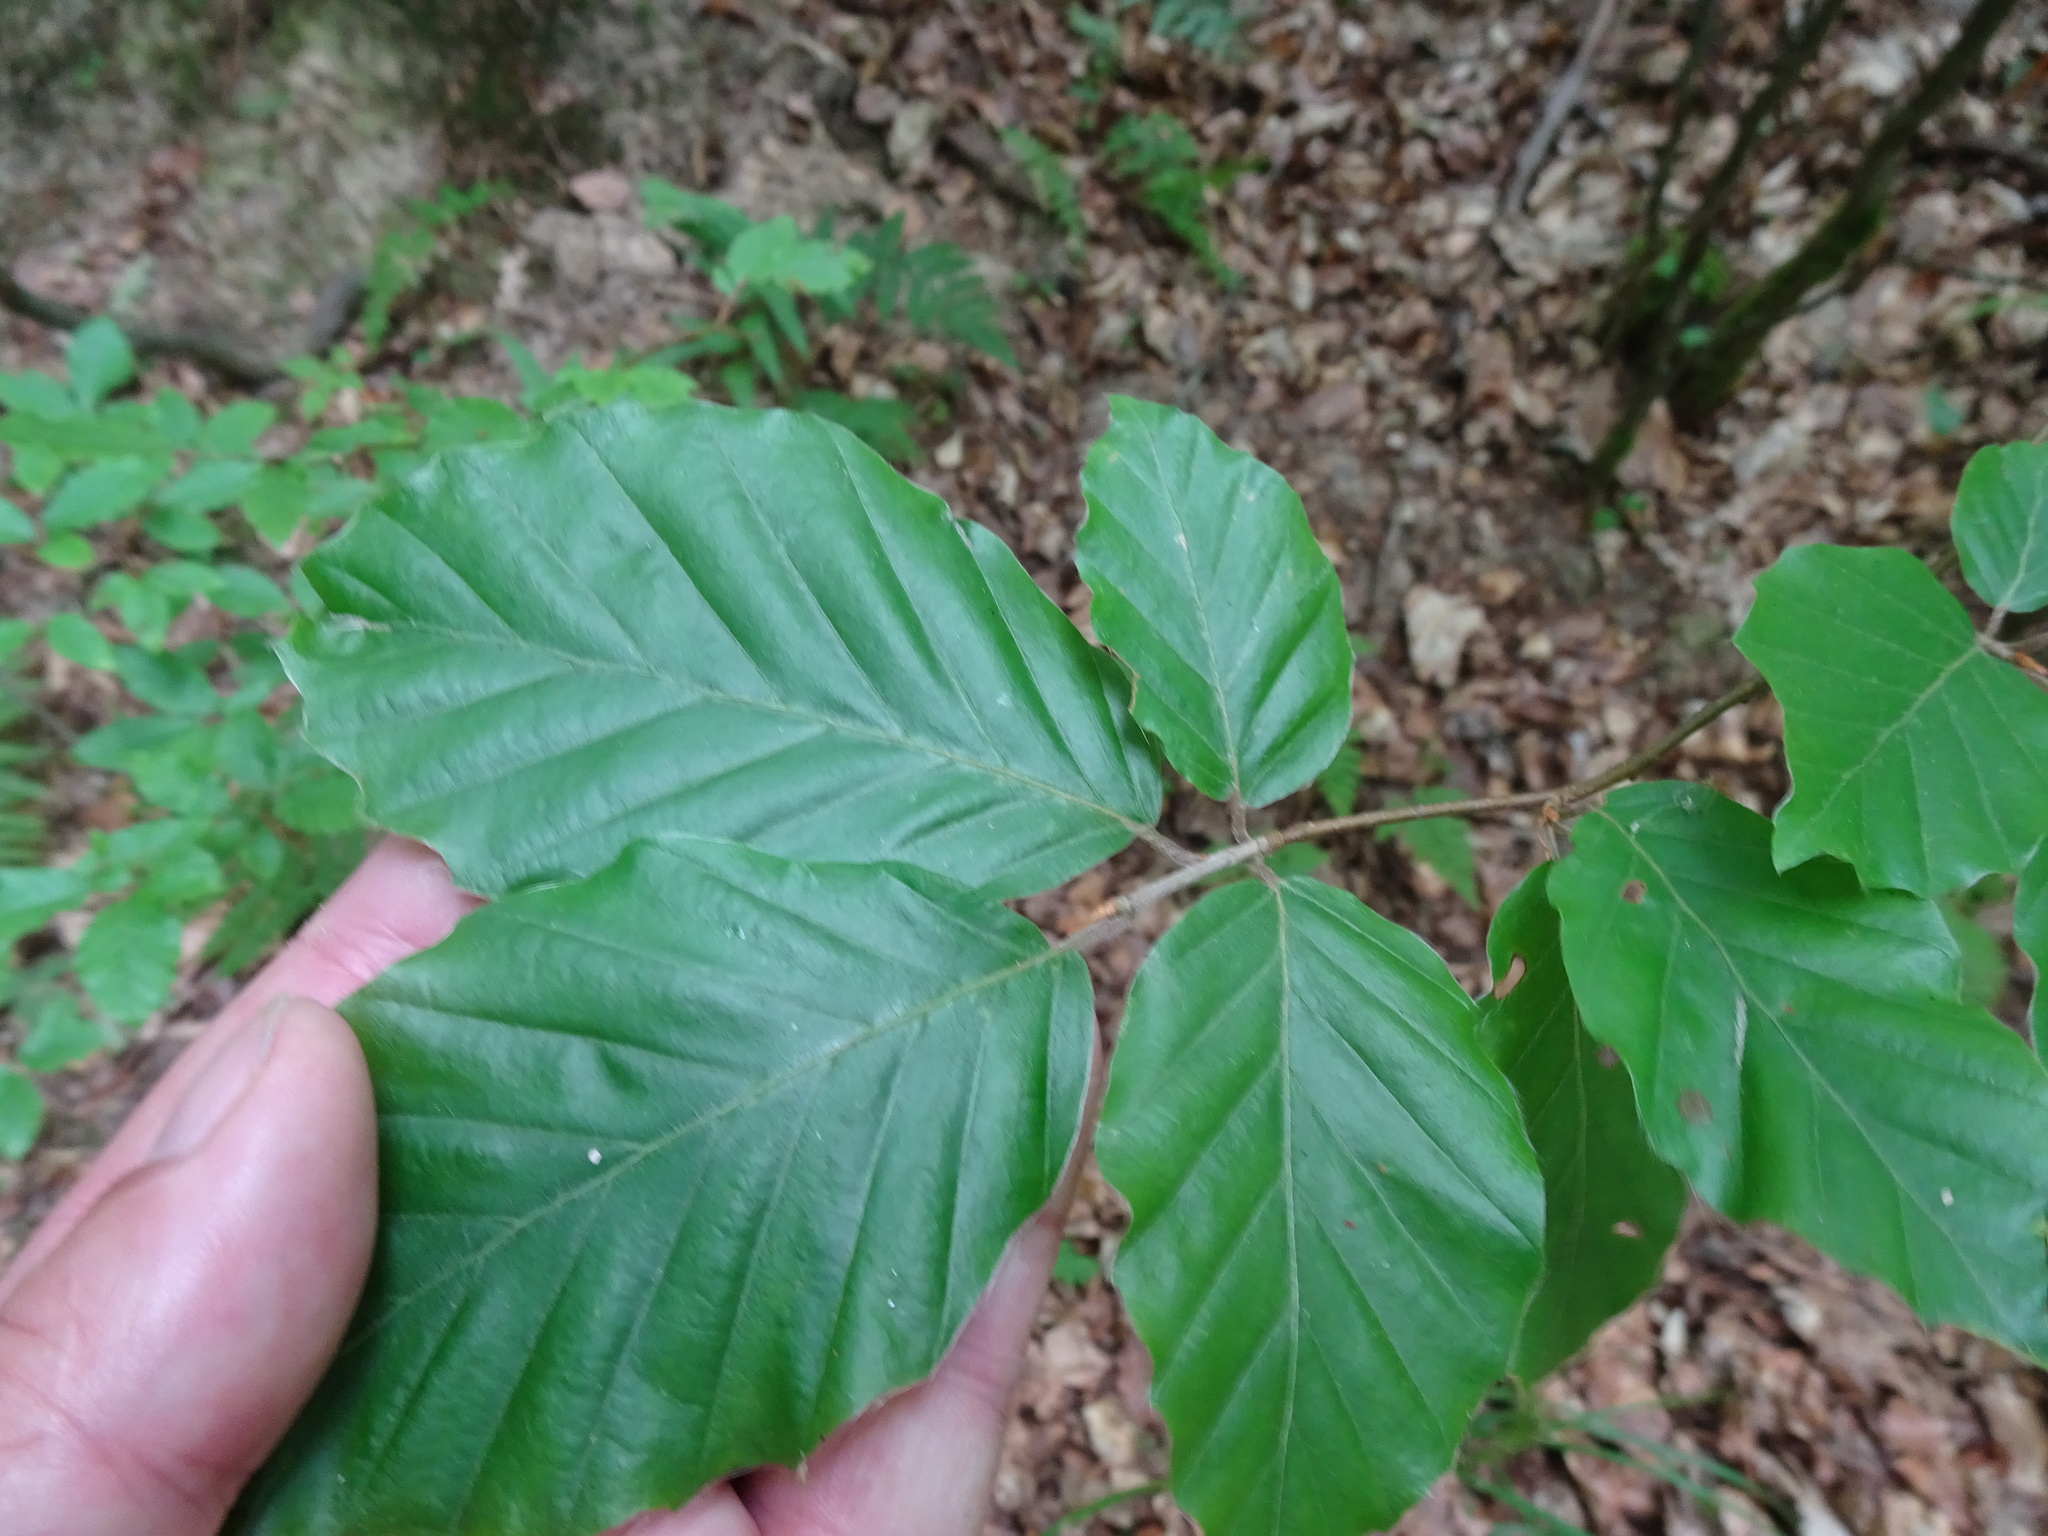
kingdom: Plantae
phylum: Tracheophyta
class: Magnoliopsida
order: Fagales
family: Fagaceae
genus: Fagus
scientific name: Fagus sylvatica
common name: Beech
